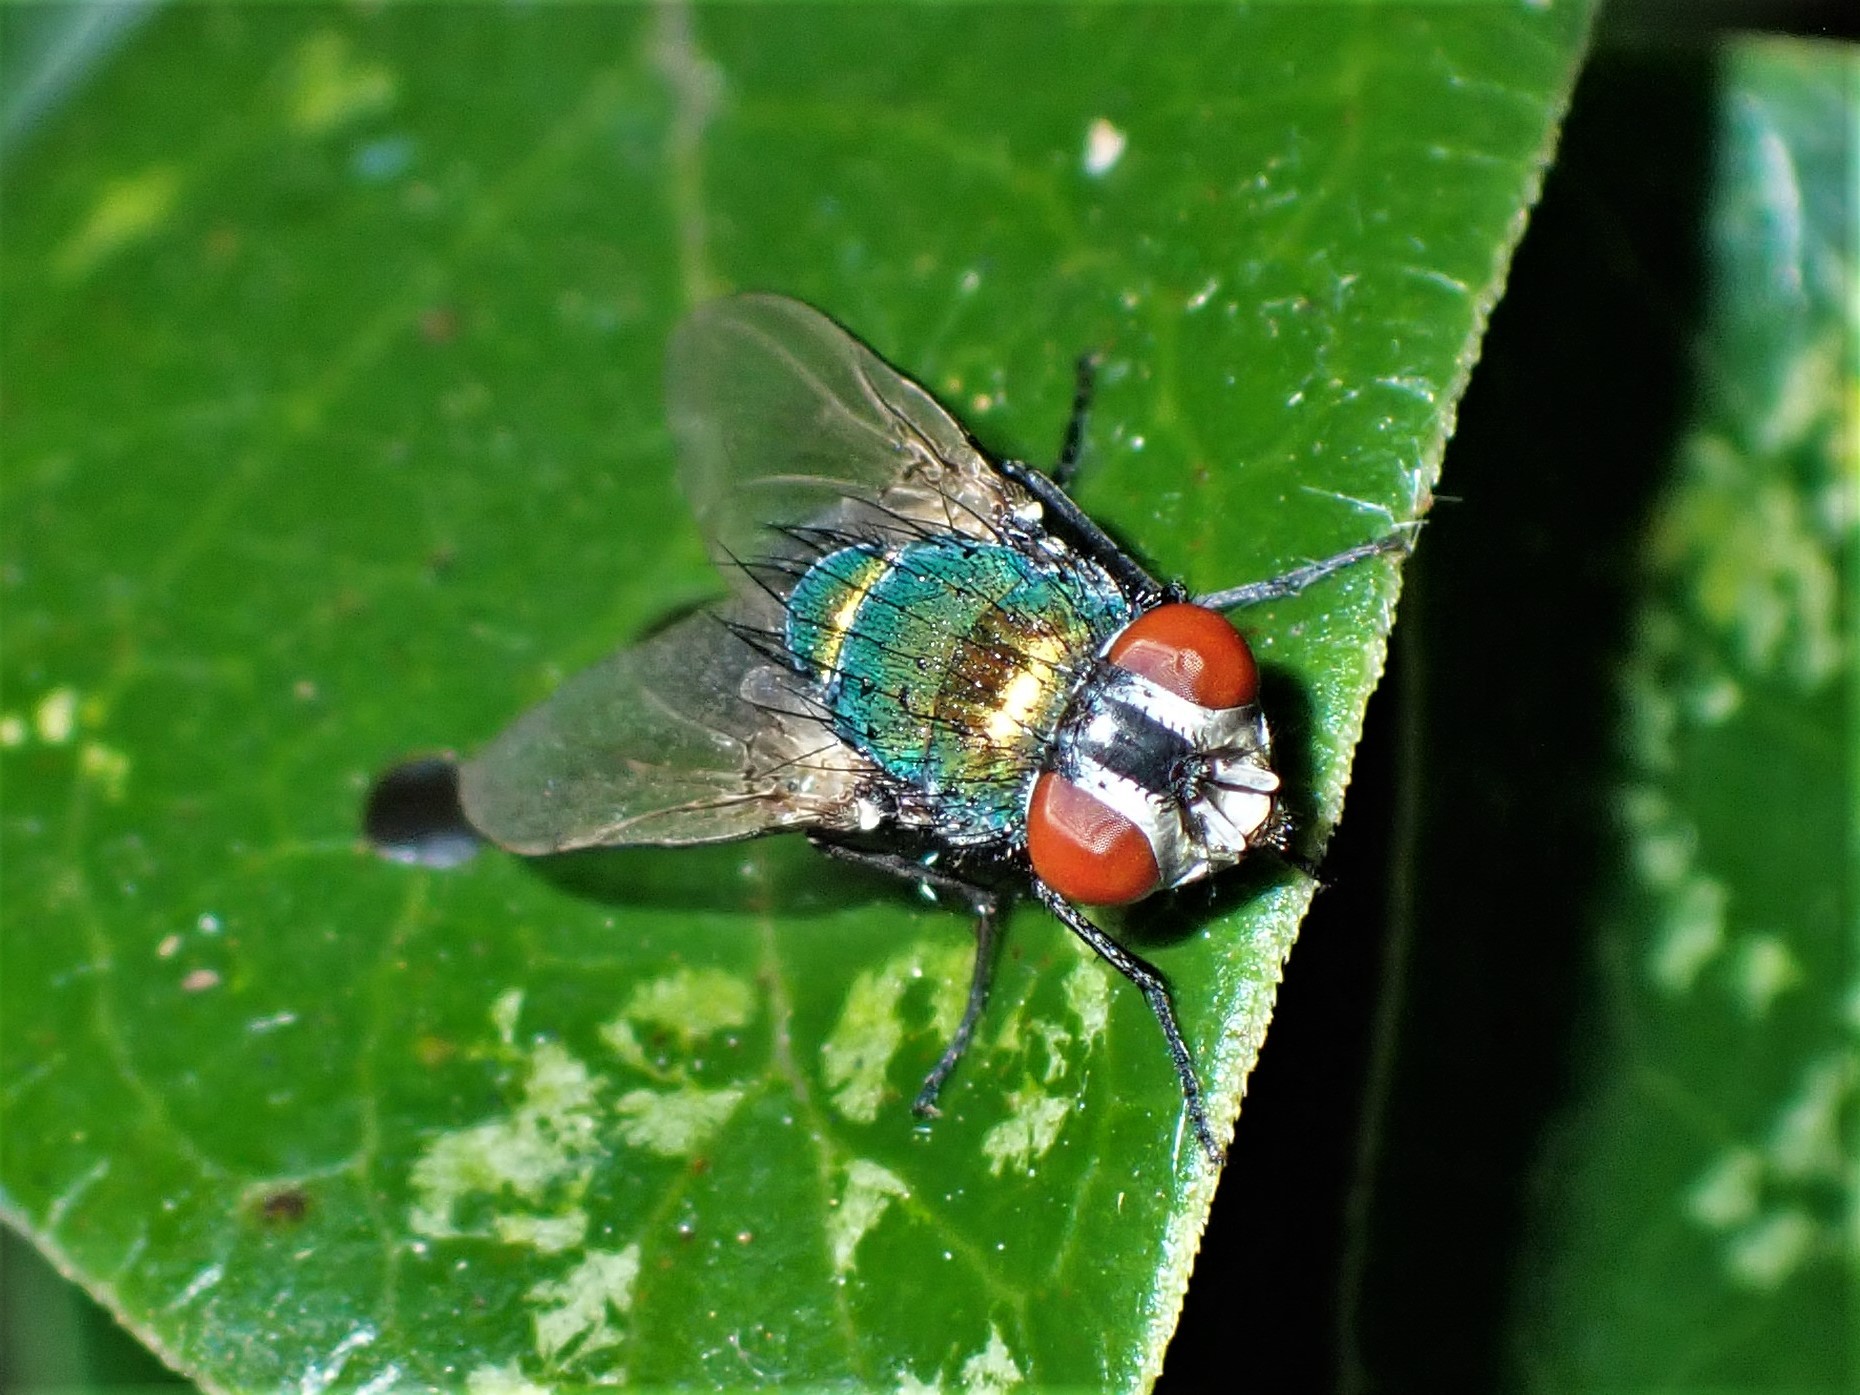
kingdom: Animalia
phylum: Arthropoda
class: Insecta
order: Diptera
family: Calliphoridae
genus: Lucilia
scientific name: Lucilia sericata
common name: Blow fly
